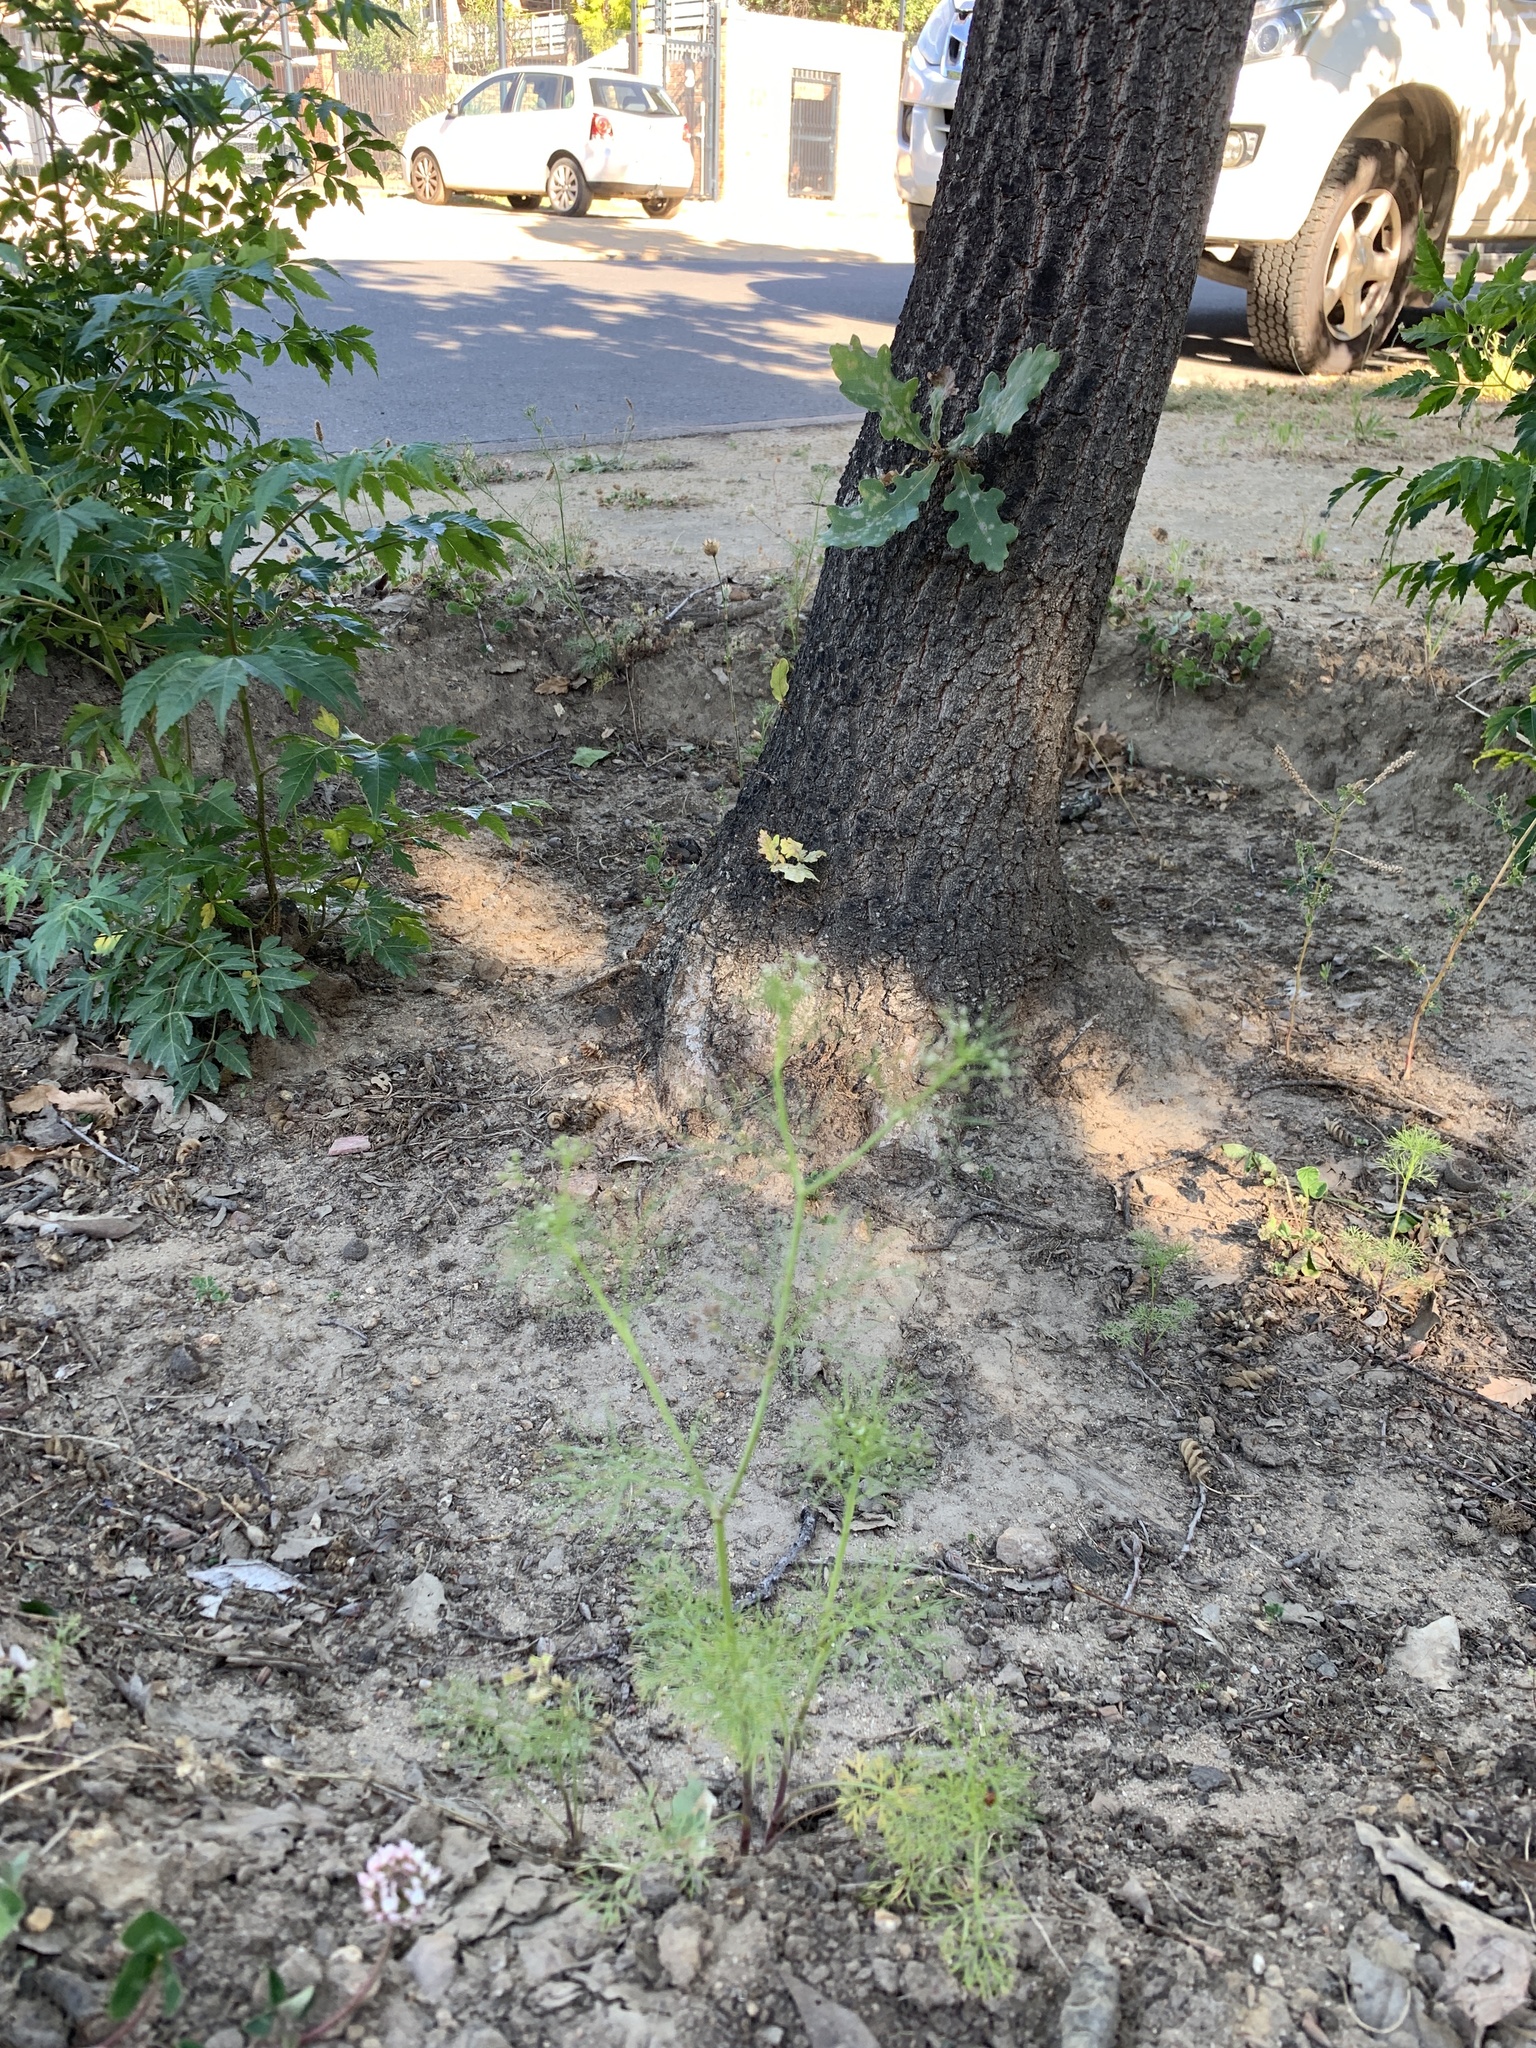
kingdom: Plantae
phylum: Tracheophyta
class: Magnoliopsida
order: Apiales
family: Apiaceae
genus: Cyclospermum
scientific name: Cyclospermum leptophyllum
